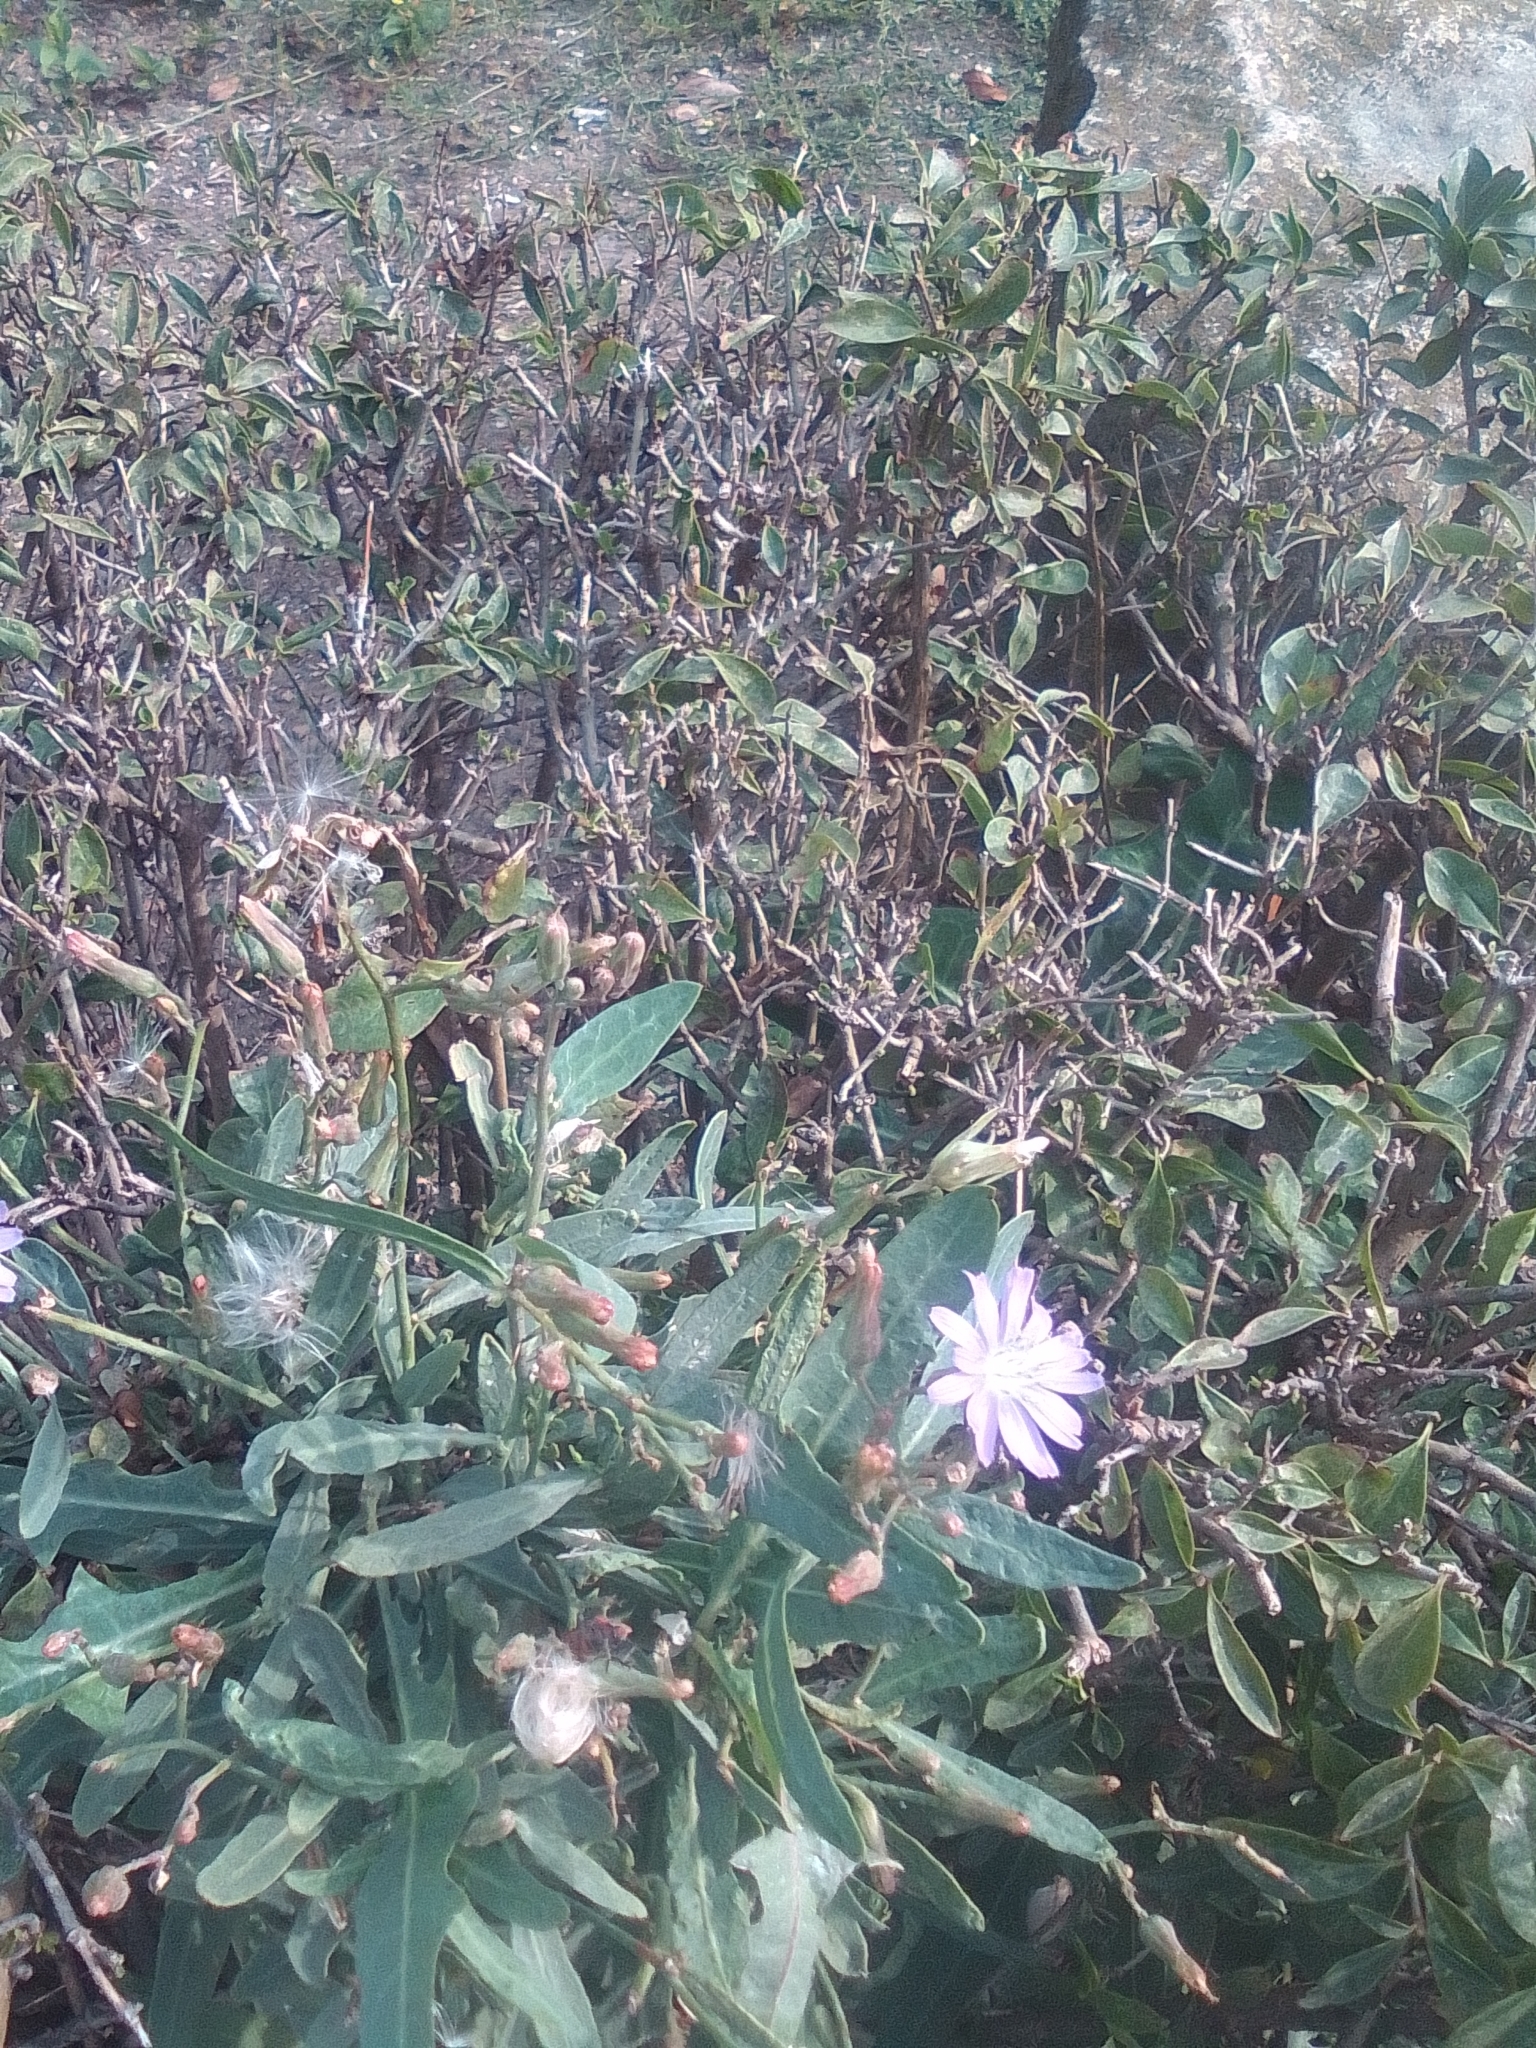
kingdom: Plantae
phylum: Tracheophyta
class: Magnoliopsida
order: Asterales
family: Asteraceae
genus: Lactuca
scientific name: Lactuca tatarica
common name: Blue lettuce
